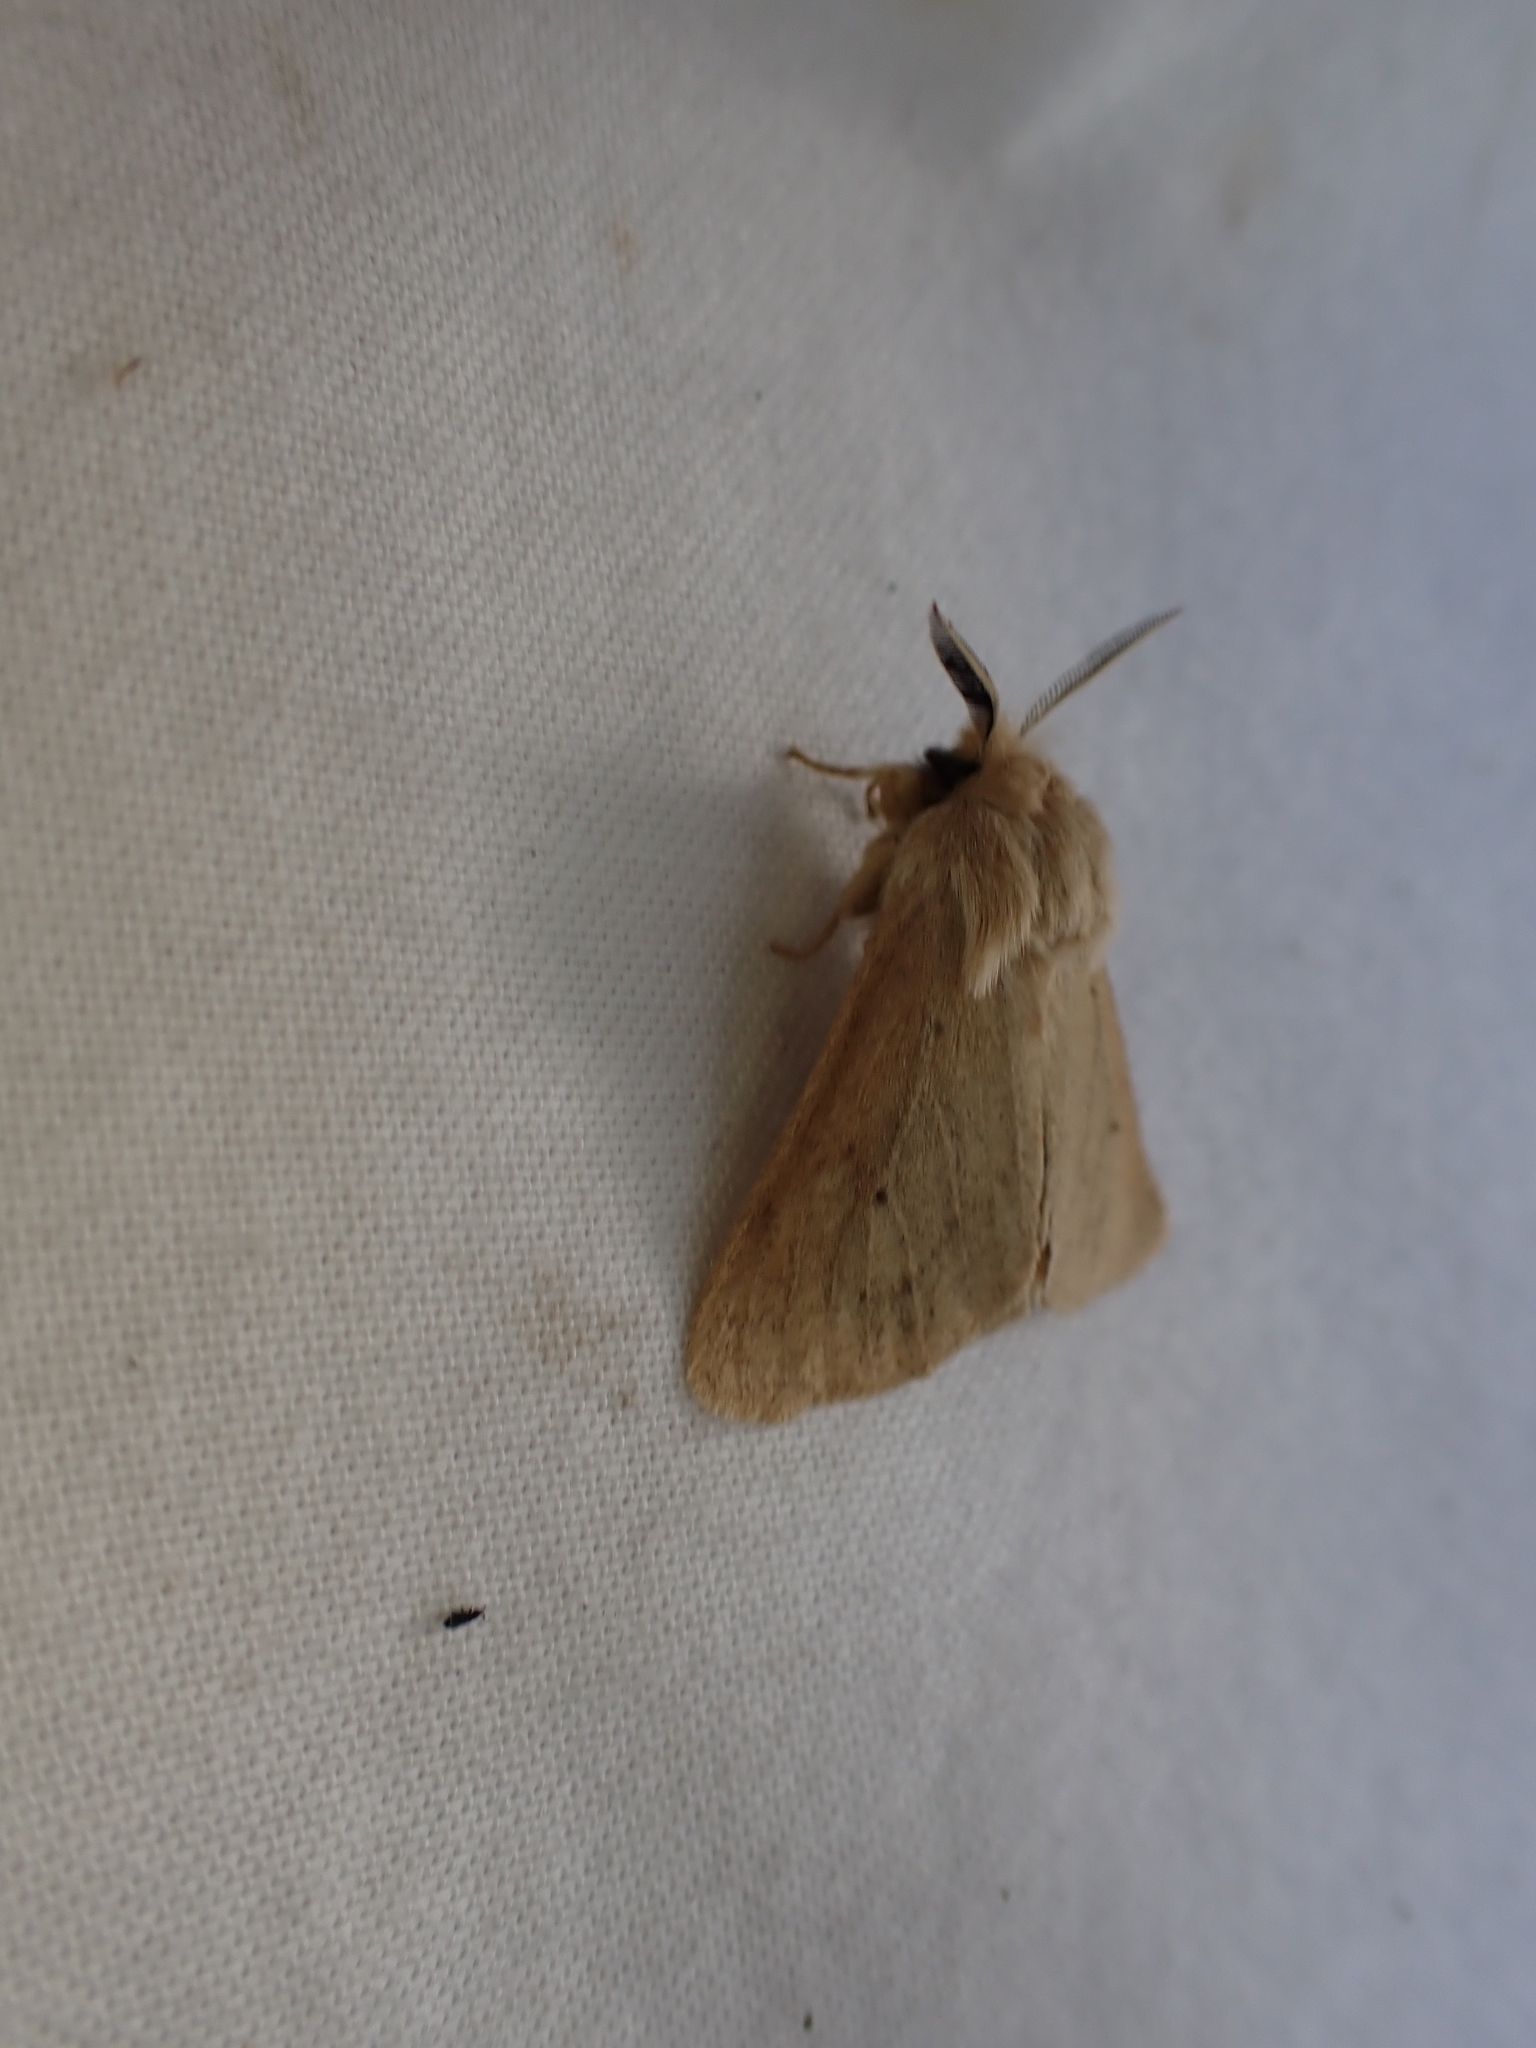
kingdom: Animalia
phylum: Arthropoda
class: Insecta
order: Lepidoptera
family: Erebidae
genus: Spilosoma
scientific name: Spilosoma vagans
